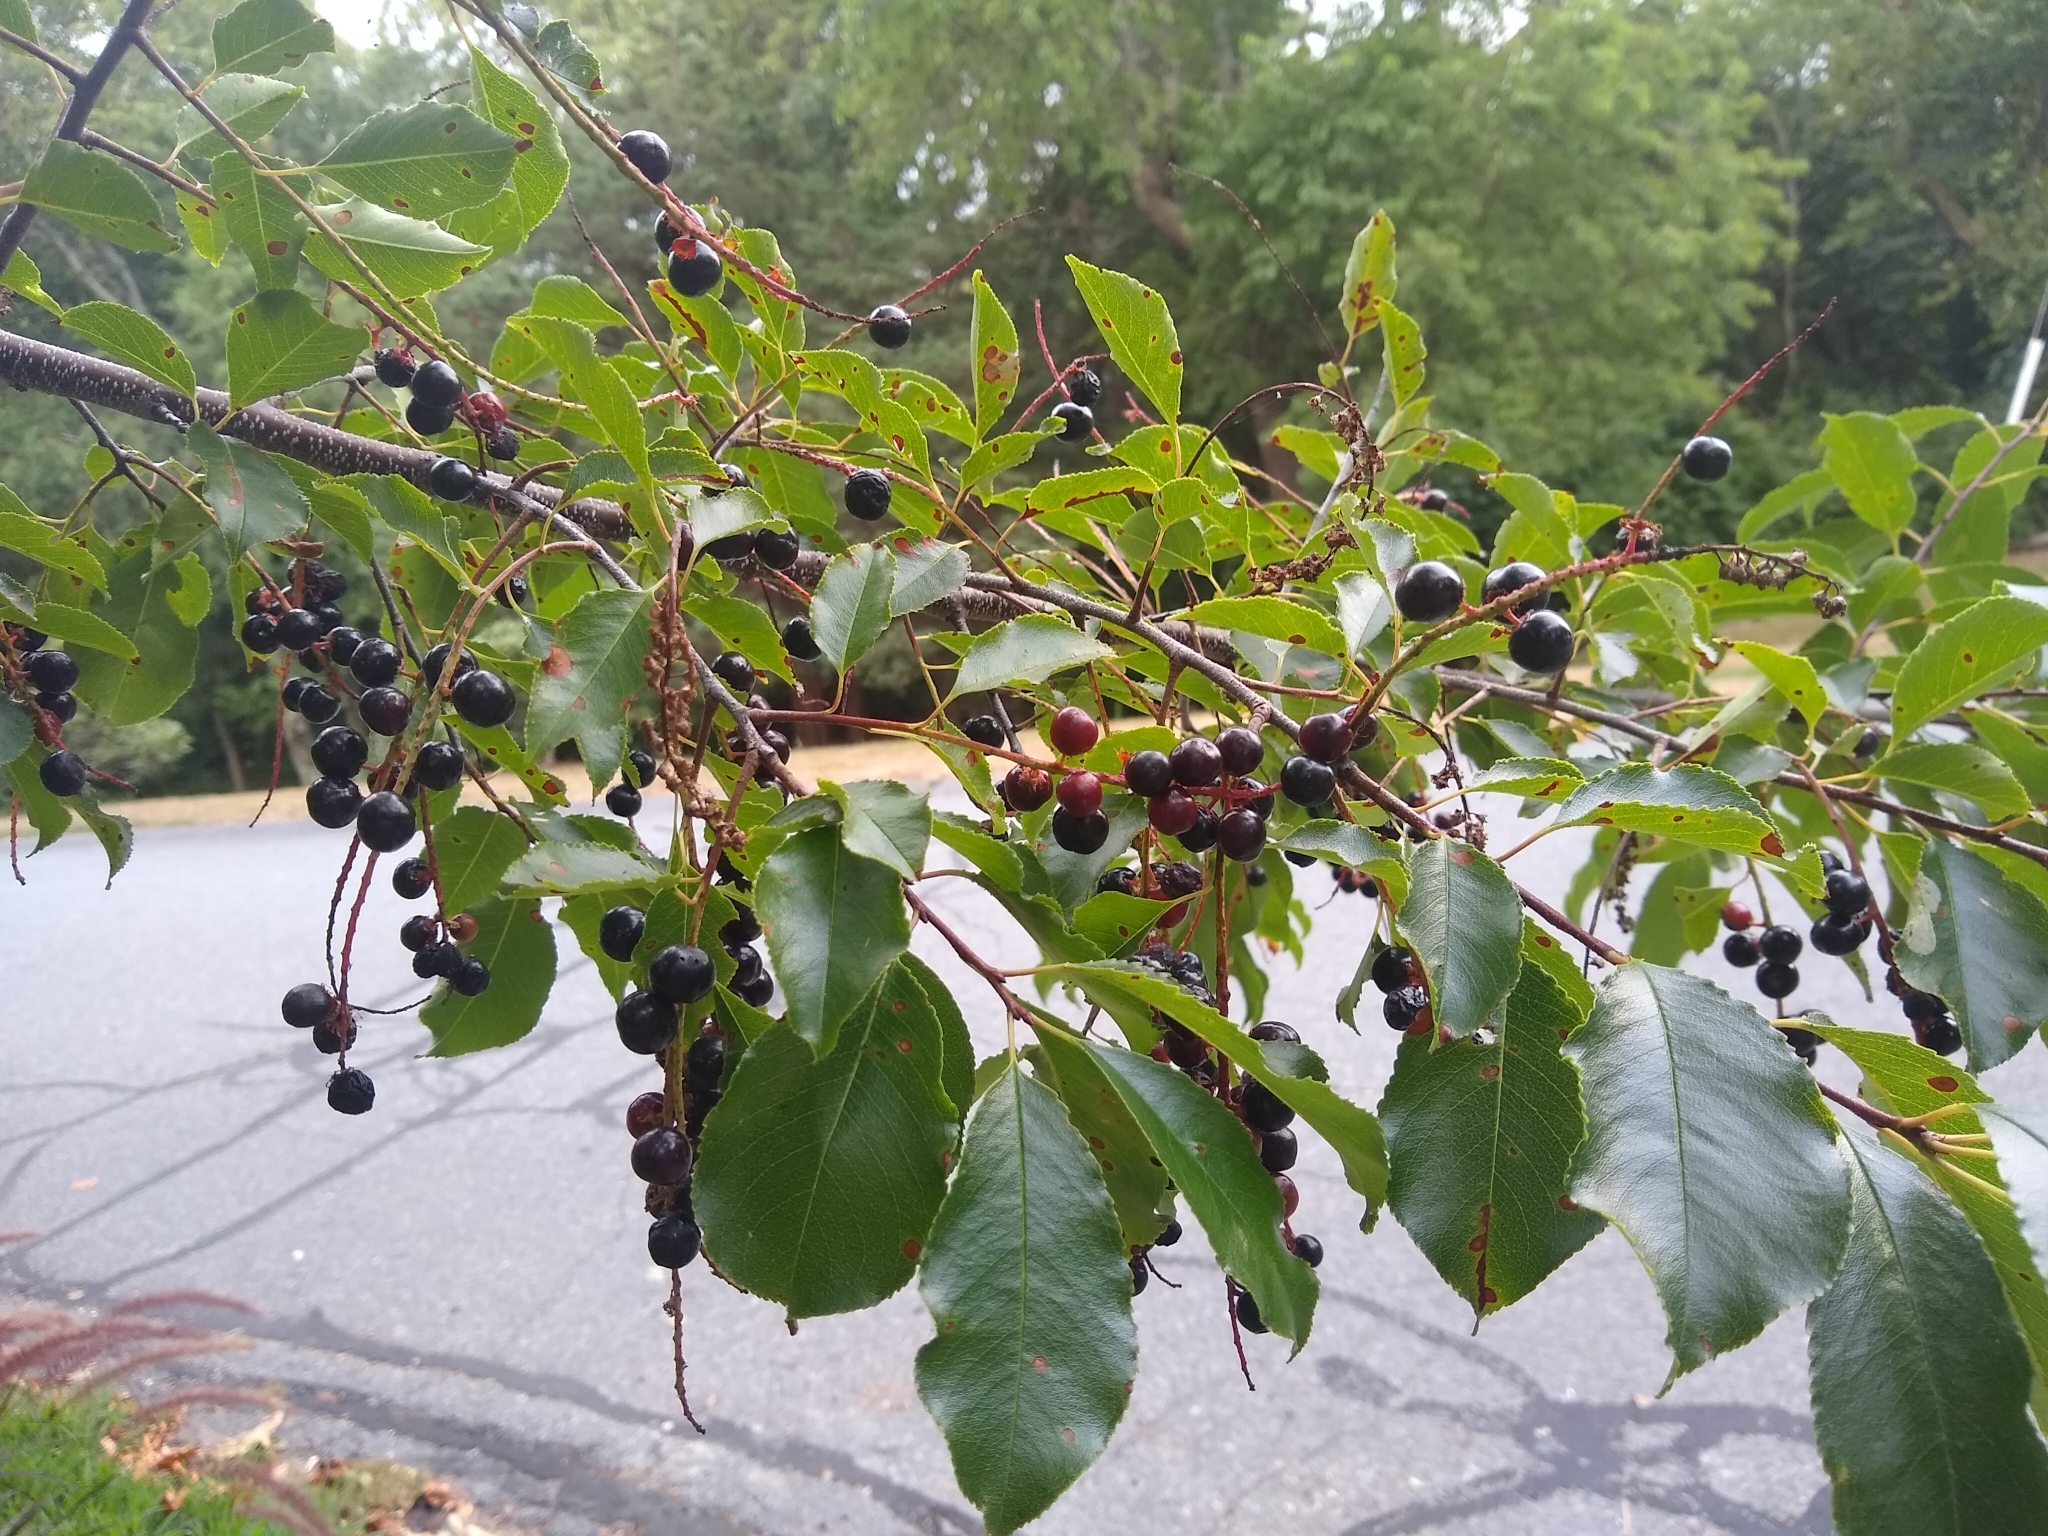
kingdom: Plantae
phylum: Tracheophyta
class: Magnoliopsida
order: Rosales
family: Rosaceae
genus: Prunus
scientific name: Prunus serotina
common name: Black cherry
